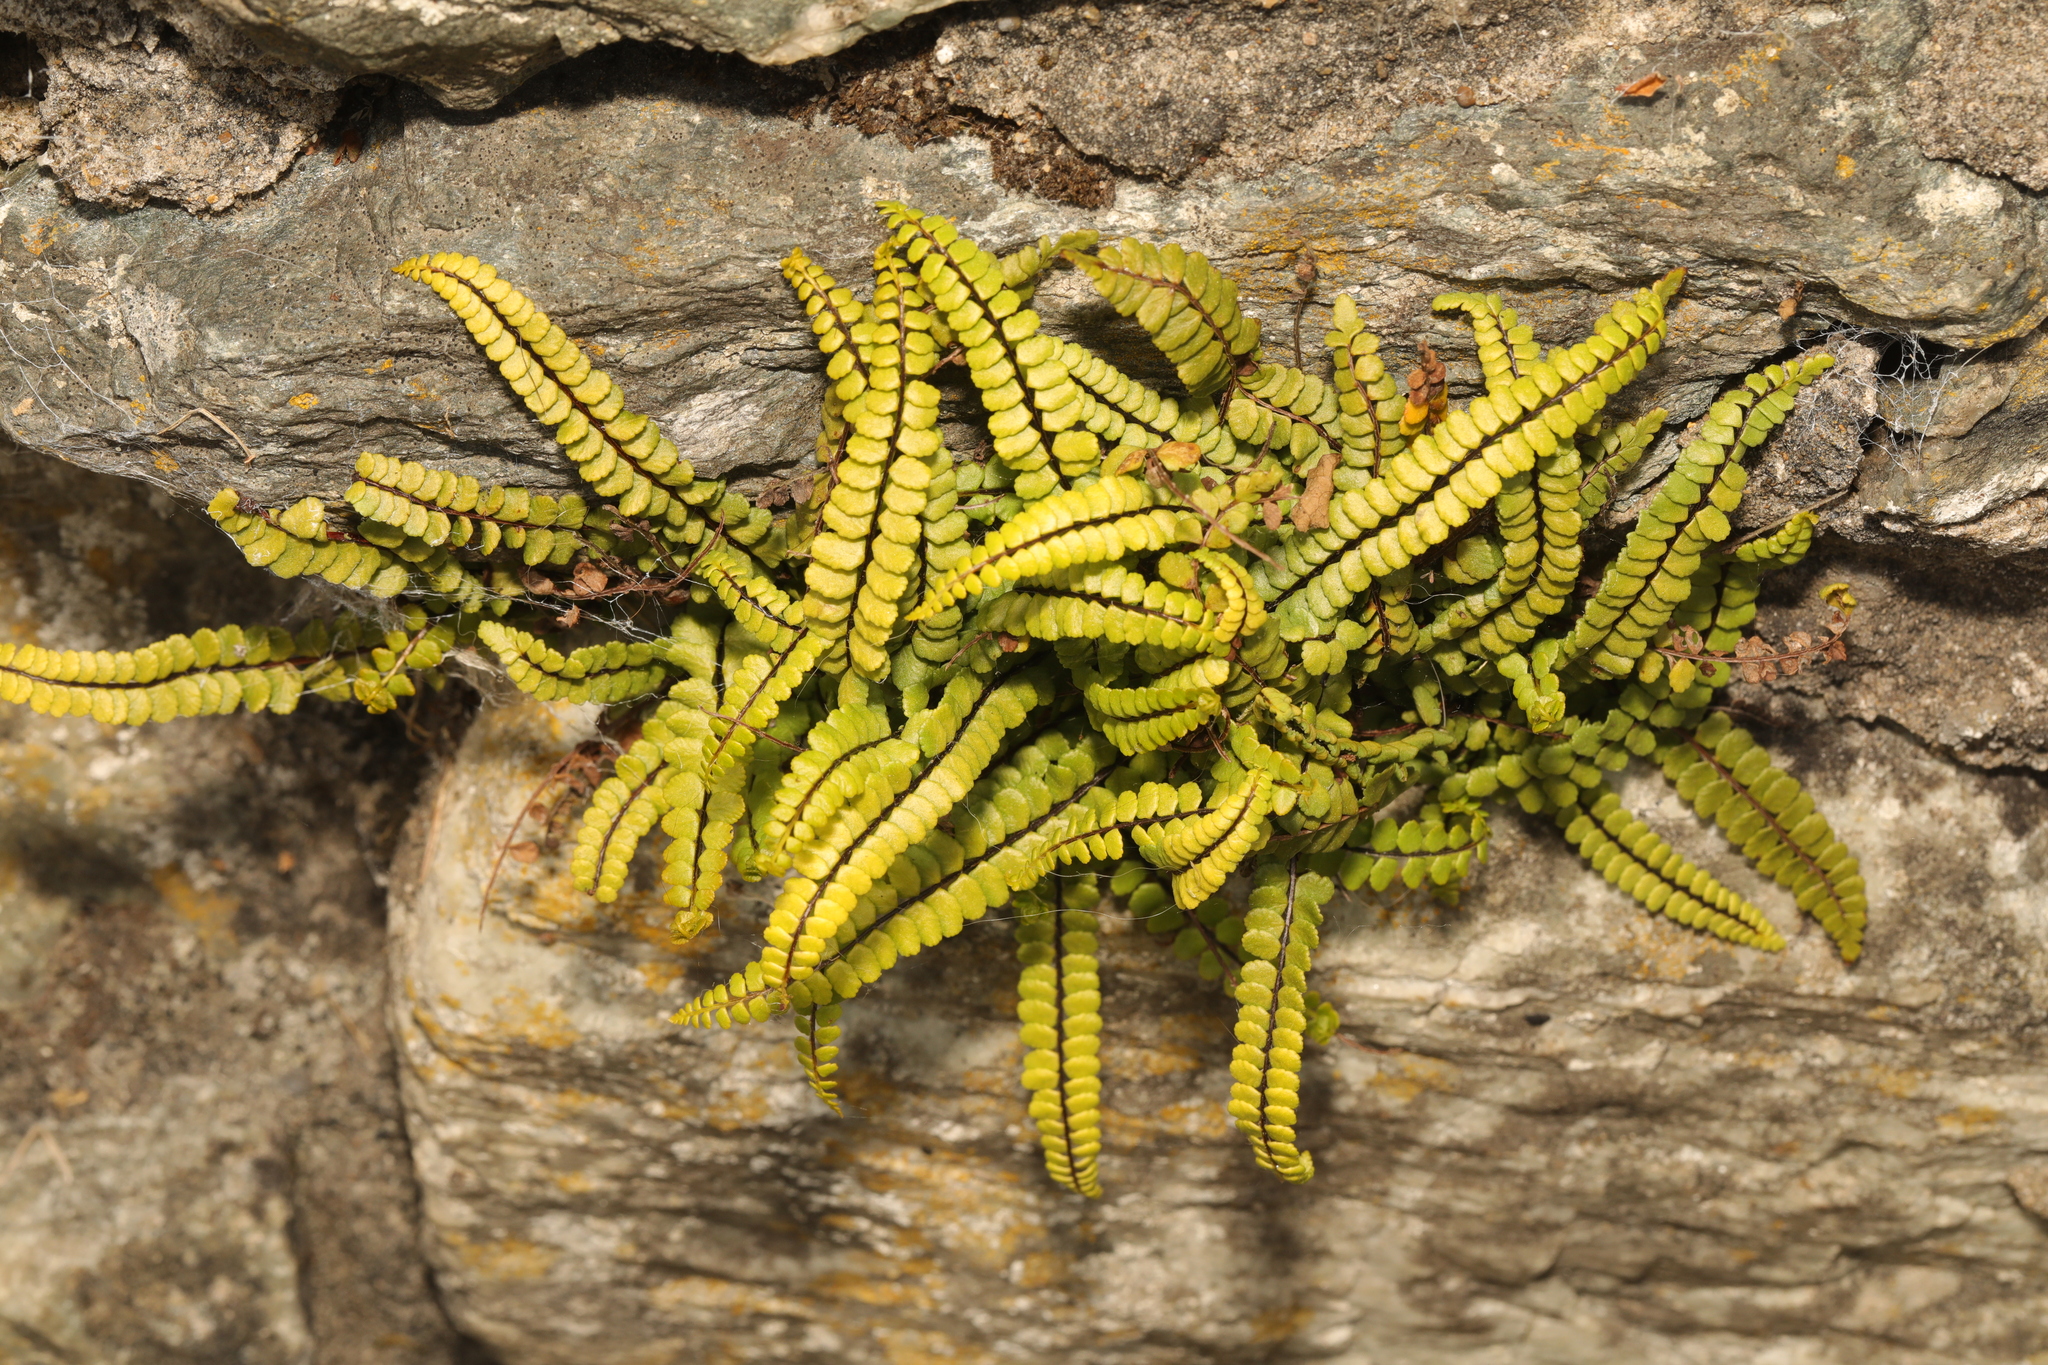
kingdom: Plantae
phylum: Tracheophyta
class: Polypodiopsida
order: Polypodiales
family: Aspleniaceae
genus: Asplenium
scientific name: Asplenium trichomanes
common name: Maidenhair spleenwort
